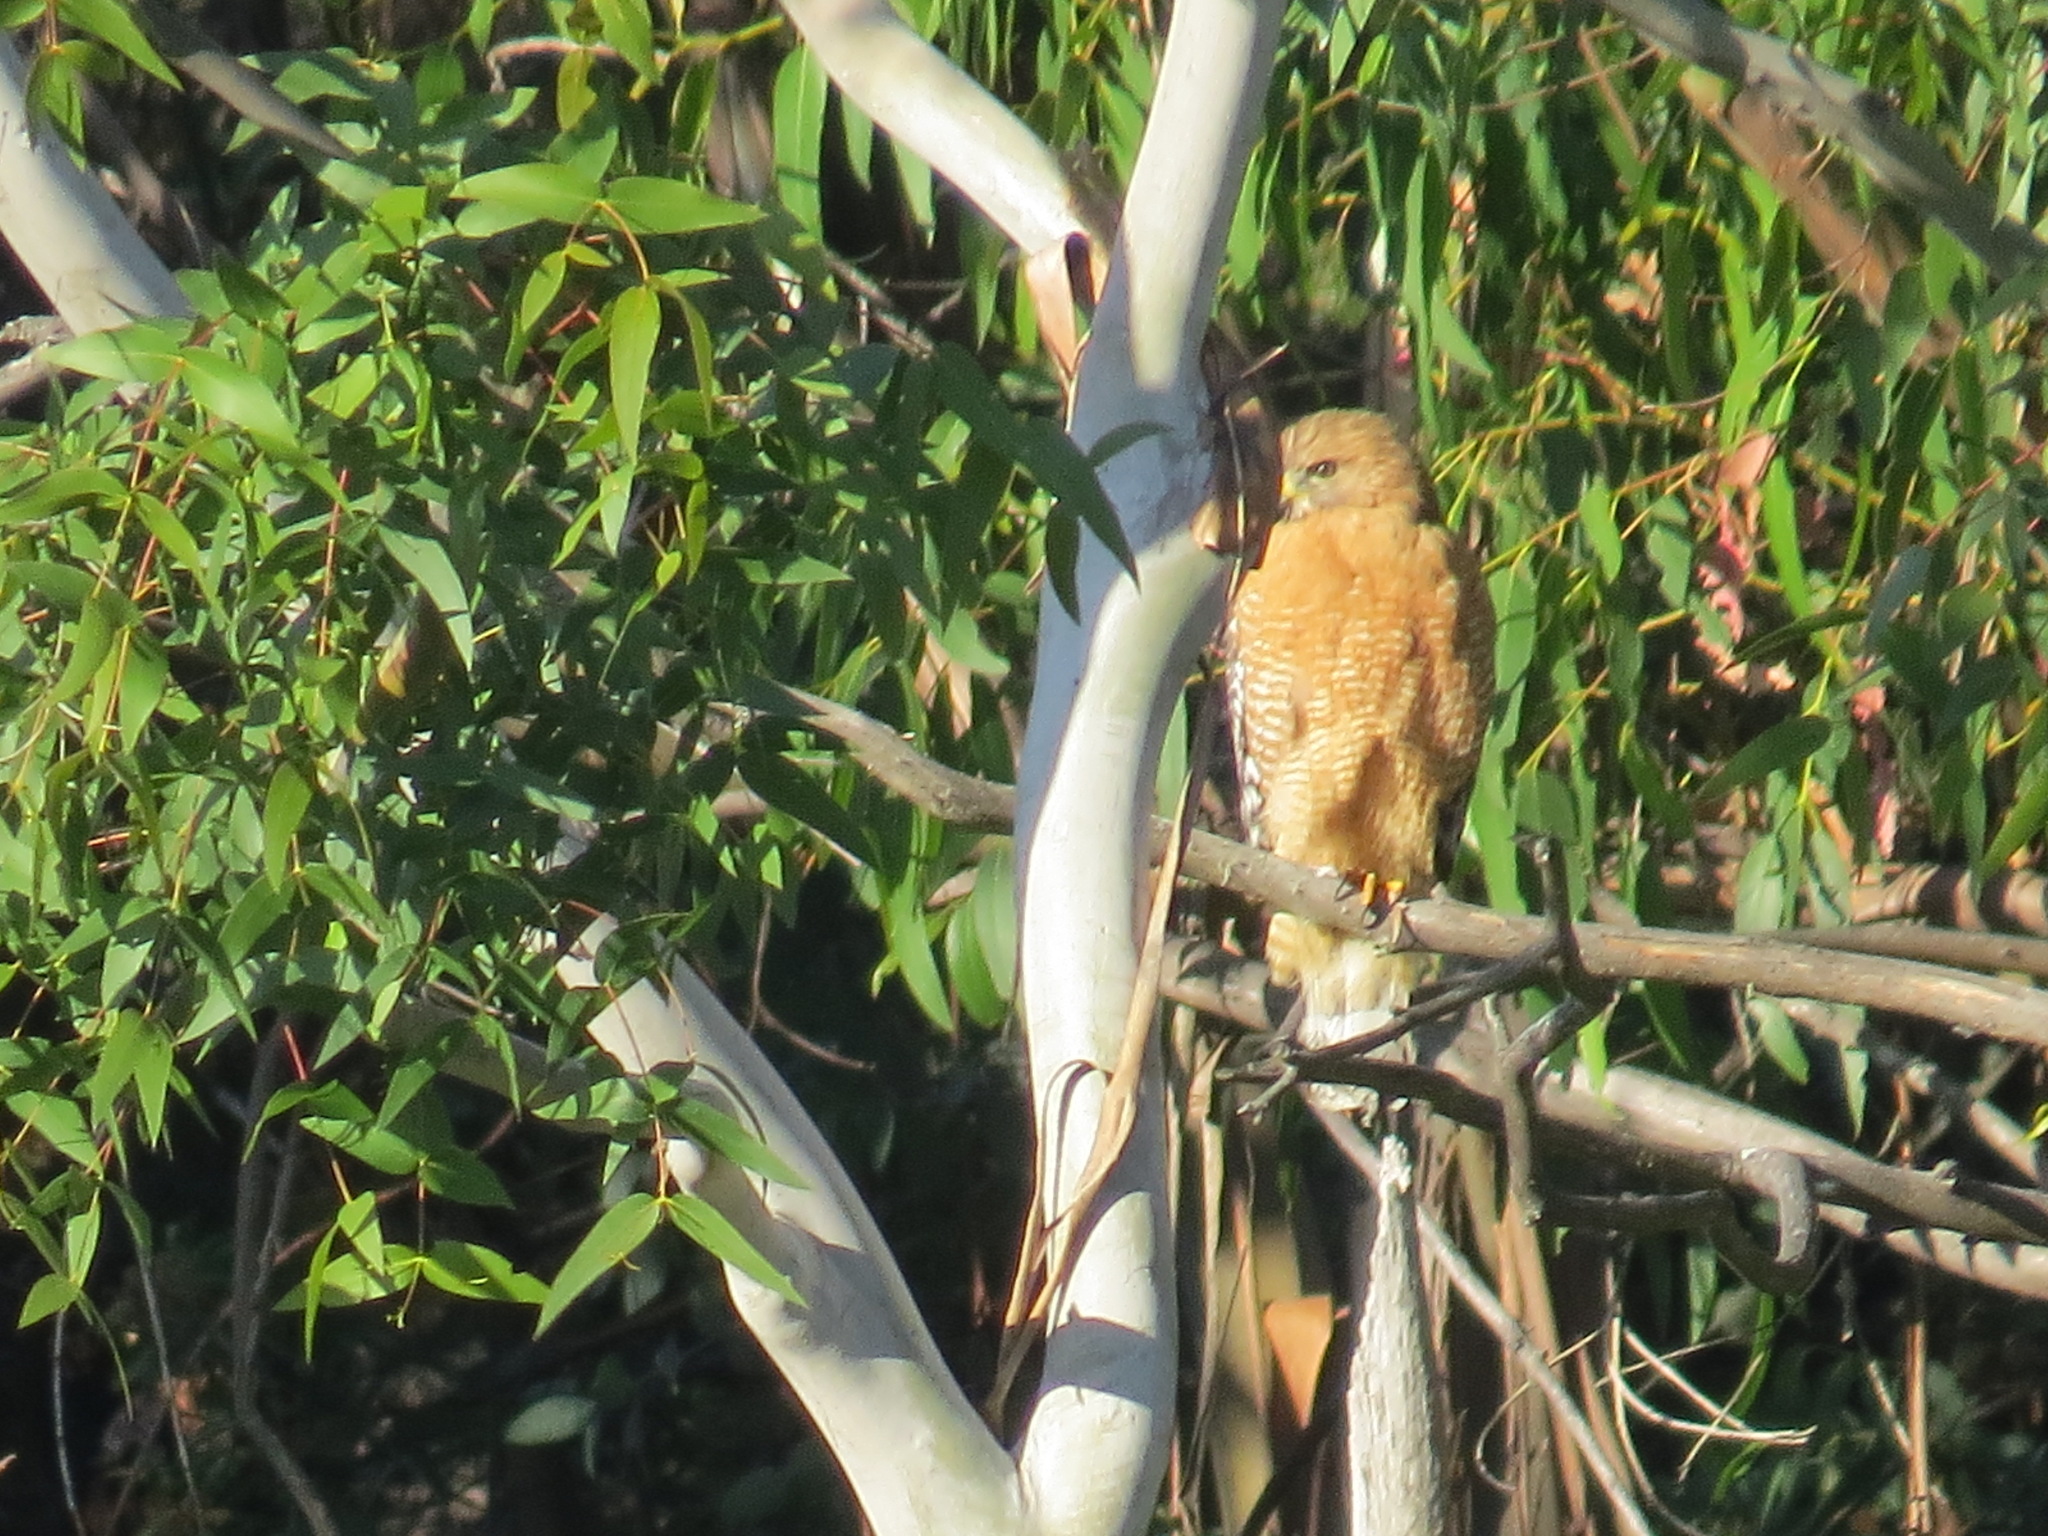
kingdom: Animalia
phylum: Chordata
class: Aves
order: Accipitriformes
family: Accipitridae
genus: Buteo
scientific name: Buteo lineatus
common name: Red-shouldered hawk
